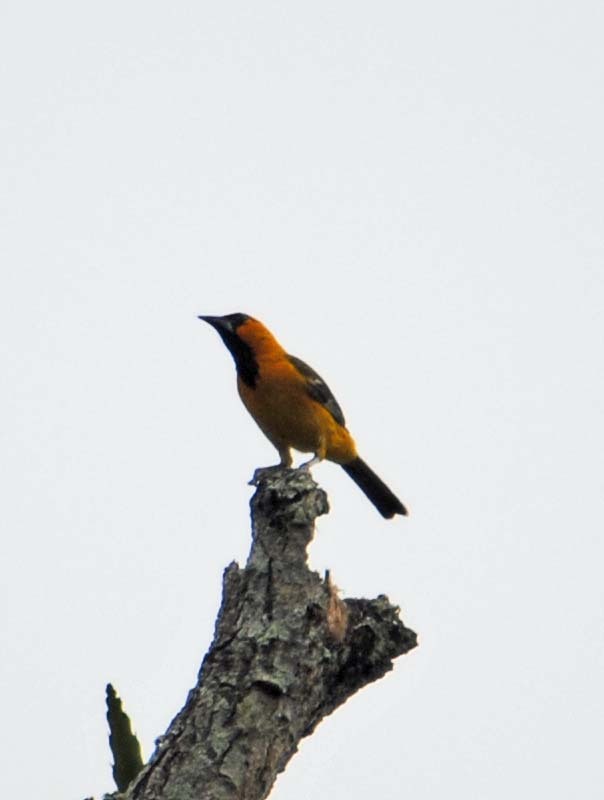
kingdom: Animalia
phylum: Chordata
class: Aves
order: Passeriformes
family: Icteridae
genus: Icterus
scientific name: Icterus gularis
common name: Altamira oriole
